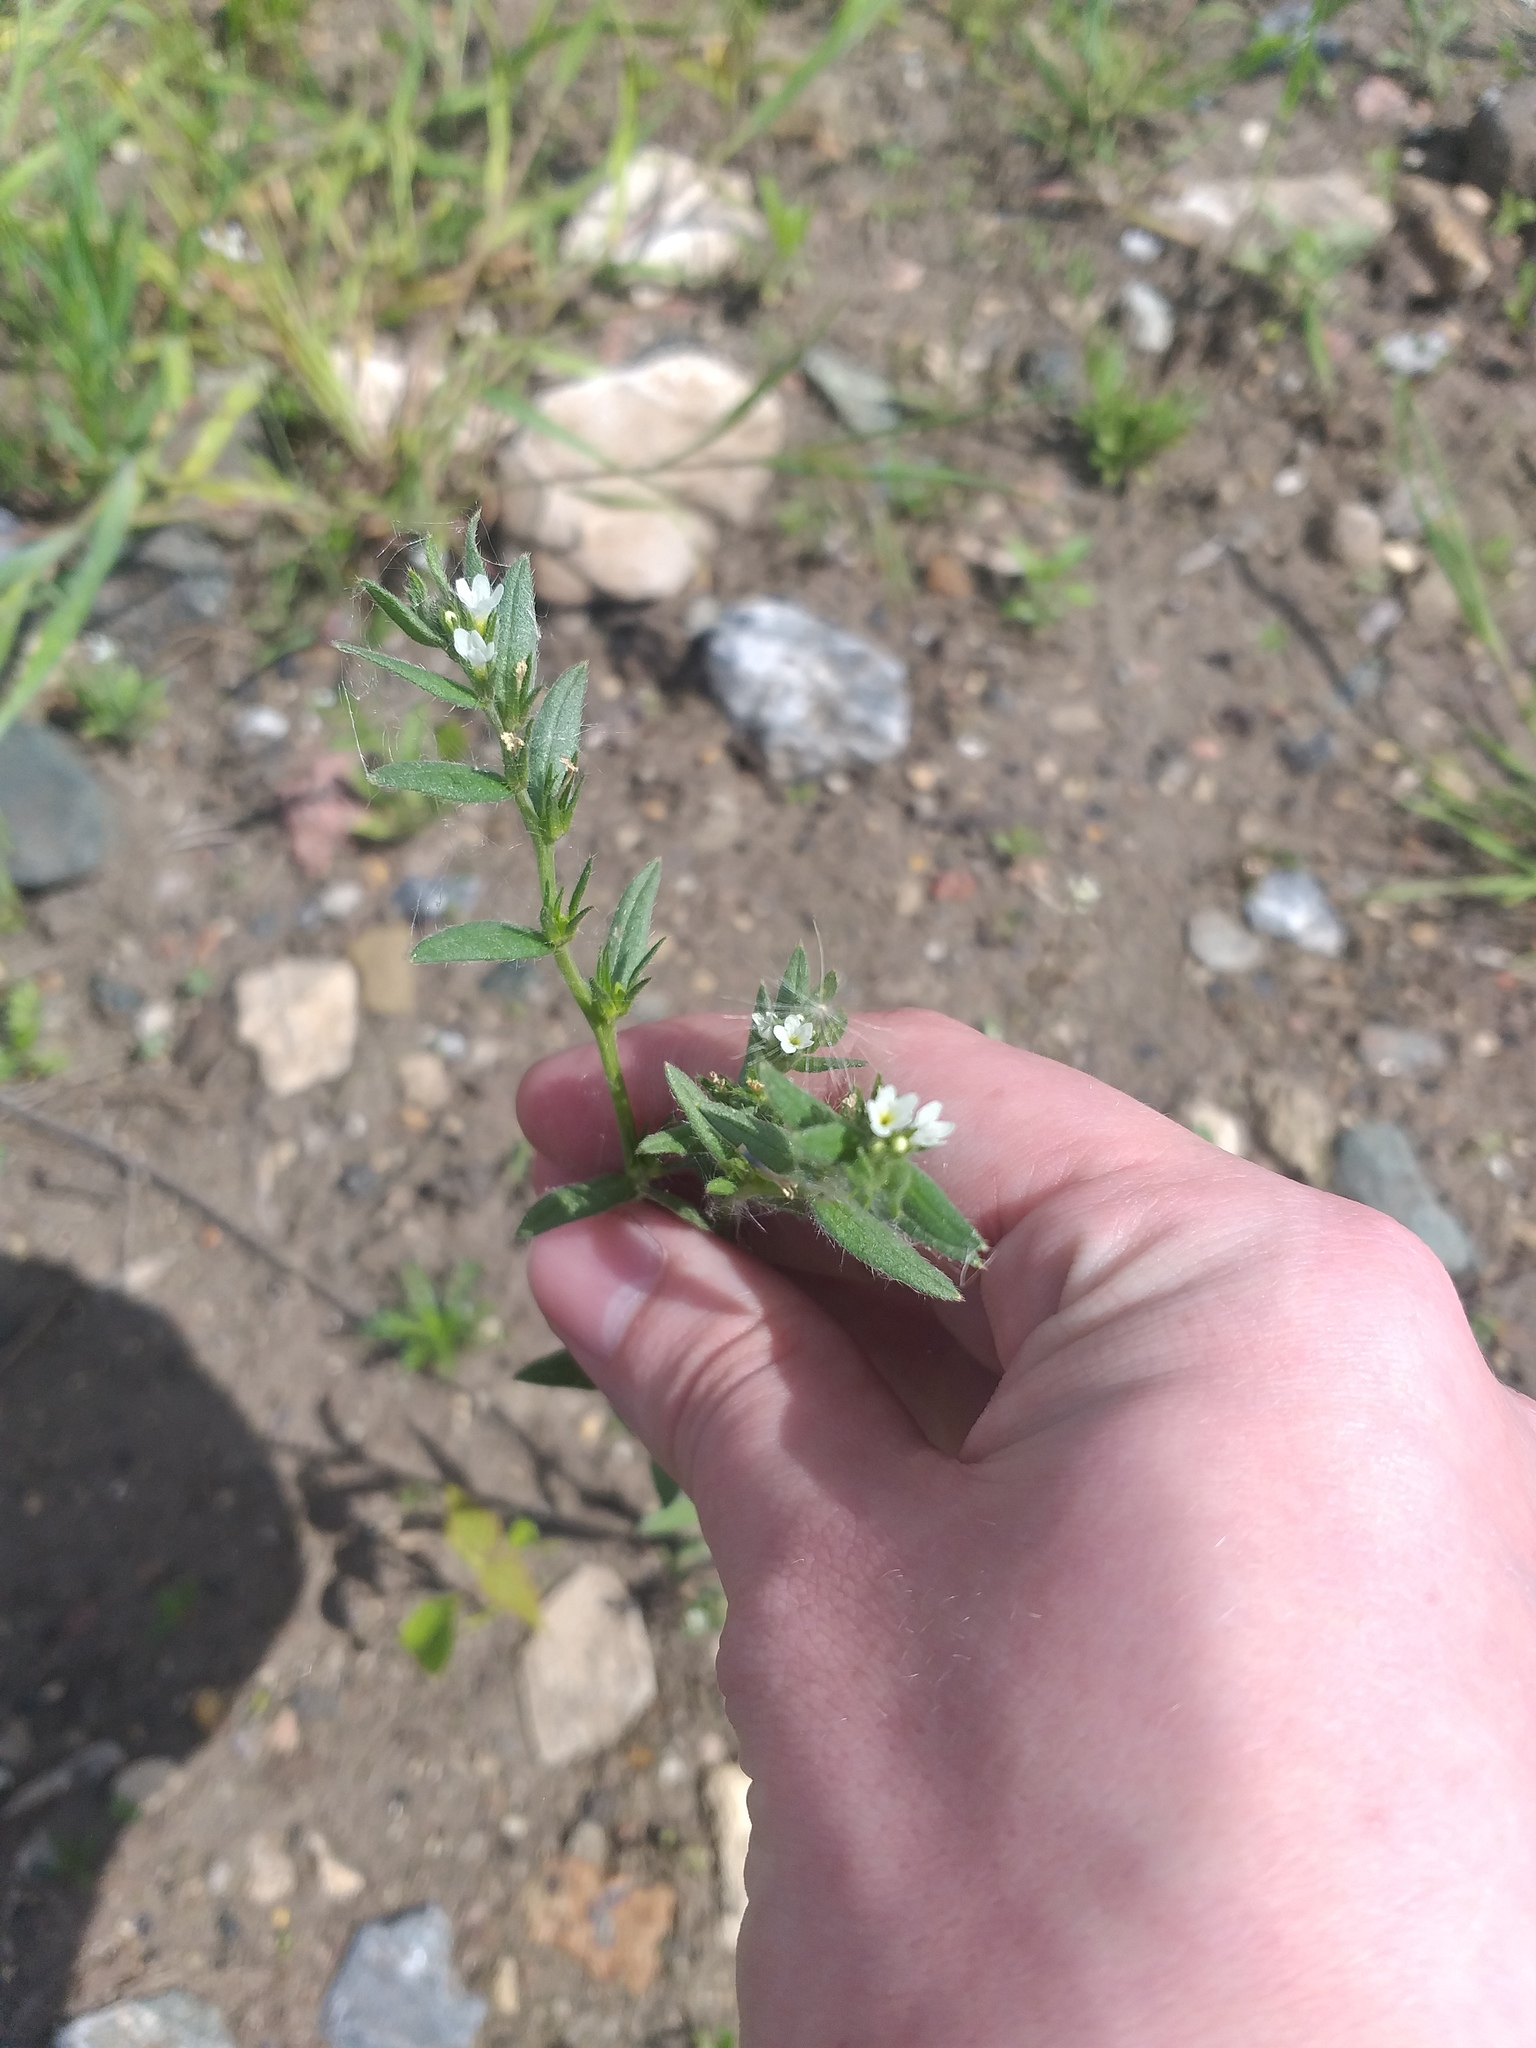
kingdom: Plantae
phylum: Tracheophyta
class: Magnoliopsida
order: Boraginales
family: Boraginaceae
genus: Buglossoides
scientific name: Buglossoides arvensis
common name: Corn gromwell
